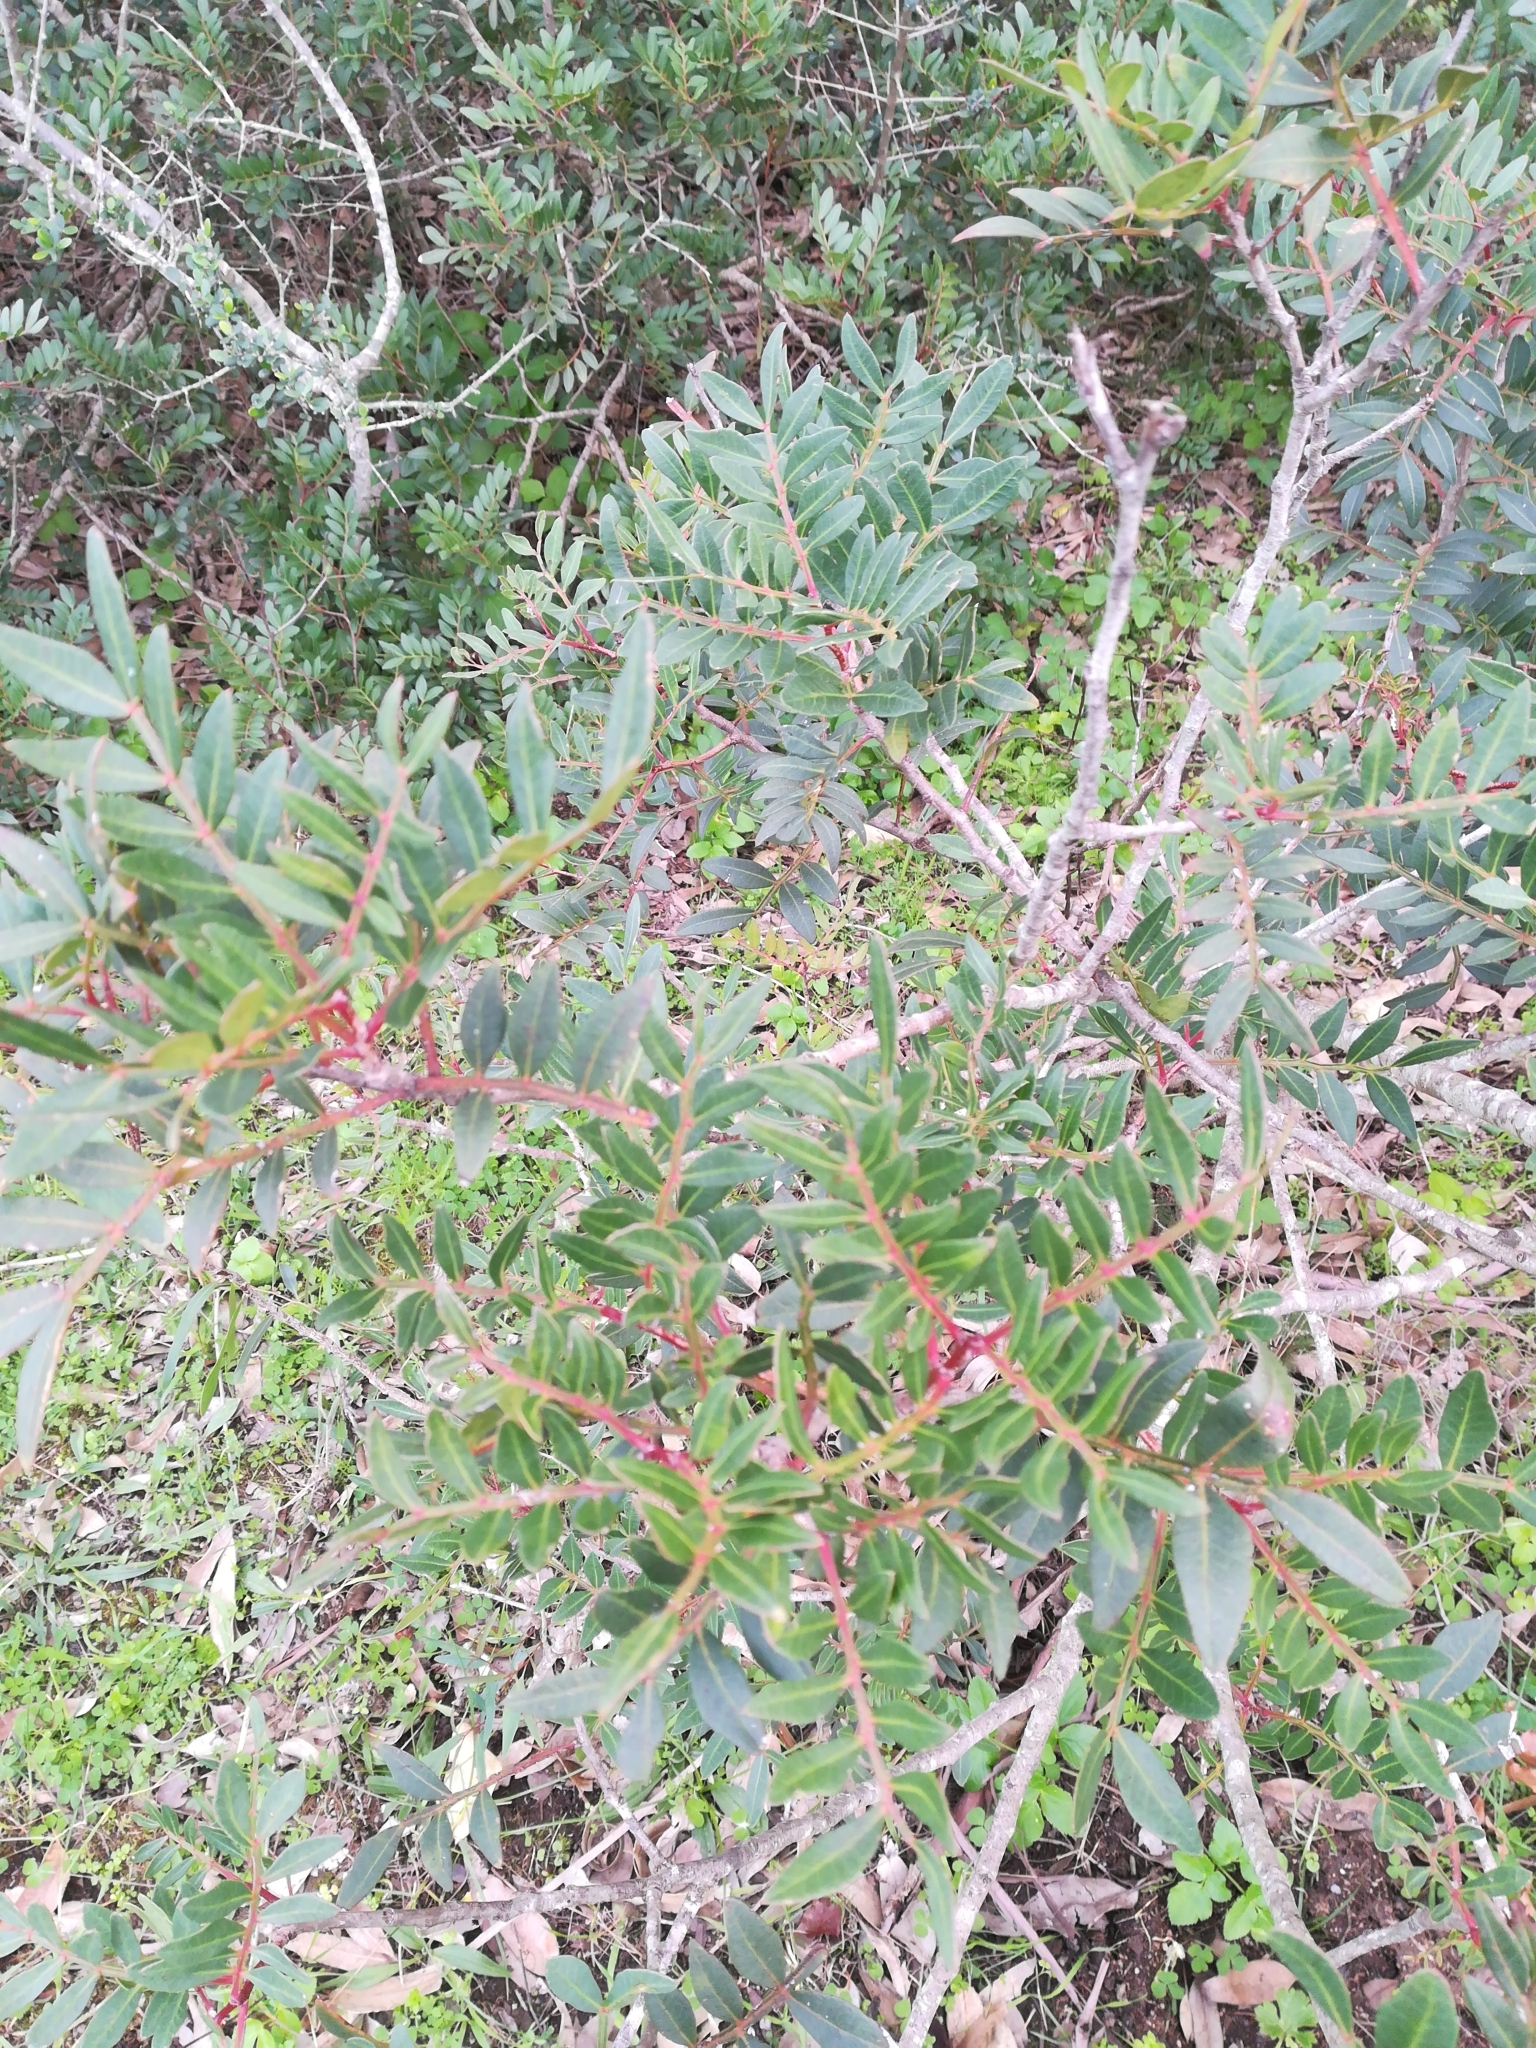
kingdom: Plantae
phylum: Tracheophyta
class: Magnoliopsida
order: Sapindales
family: Anacardiaceae
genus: Pistacia
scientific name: Pistacia lentiscus
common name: Lentisk
